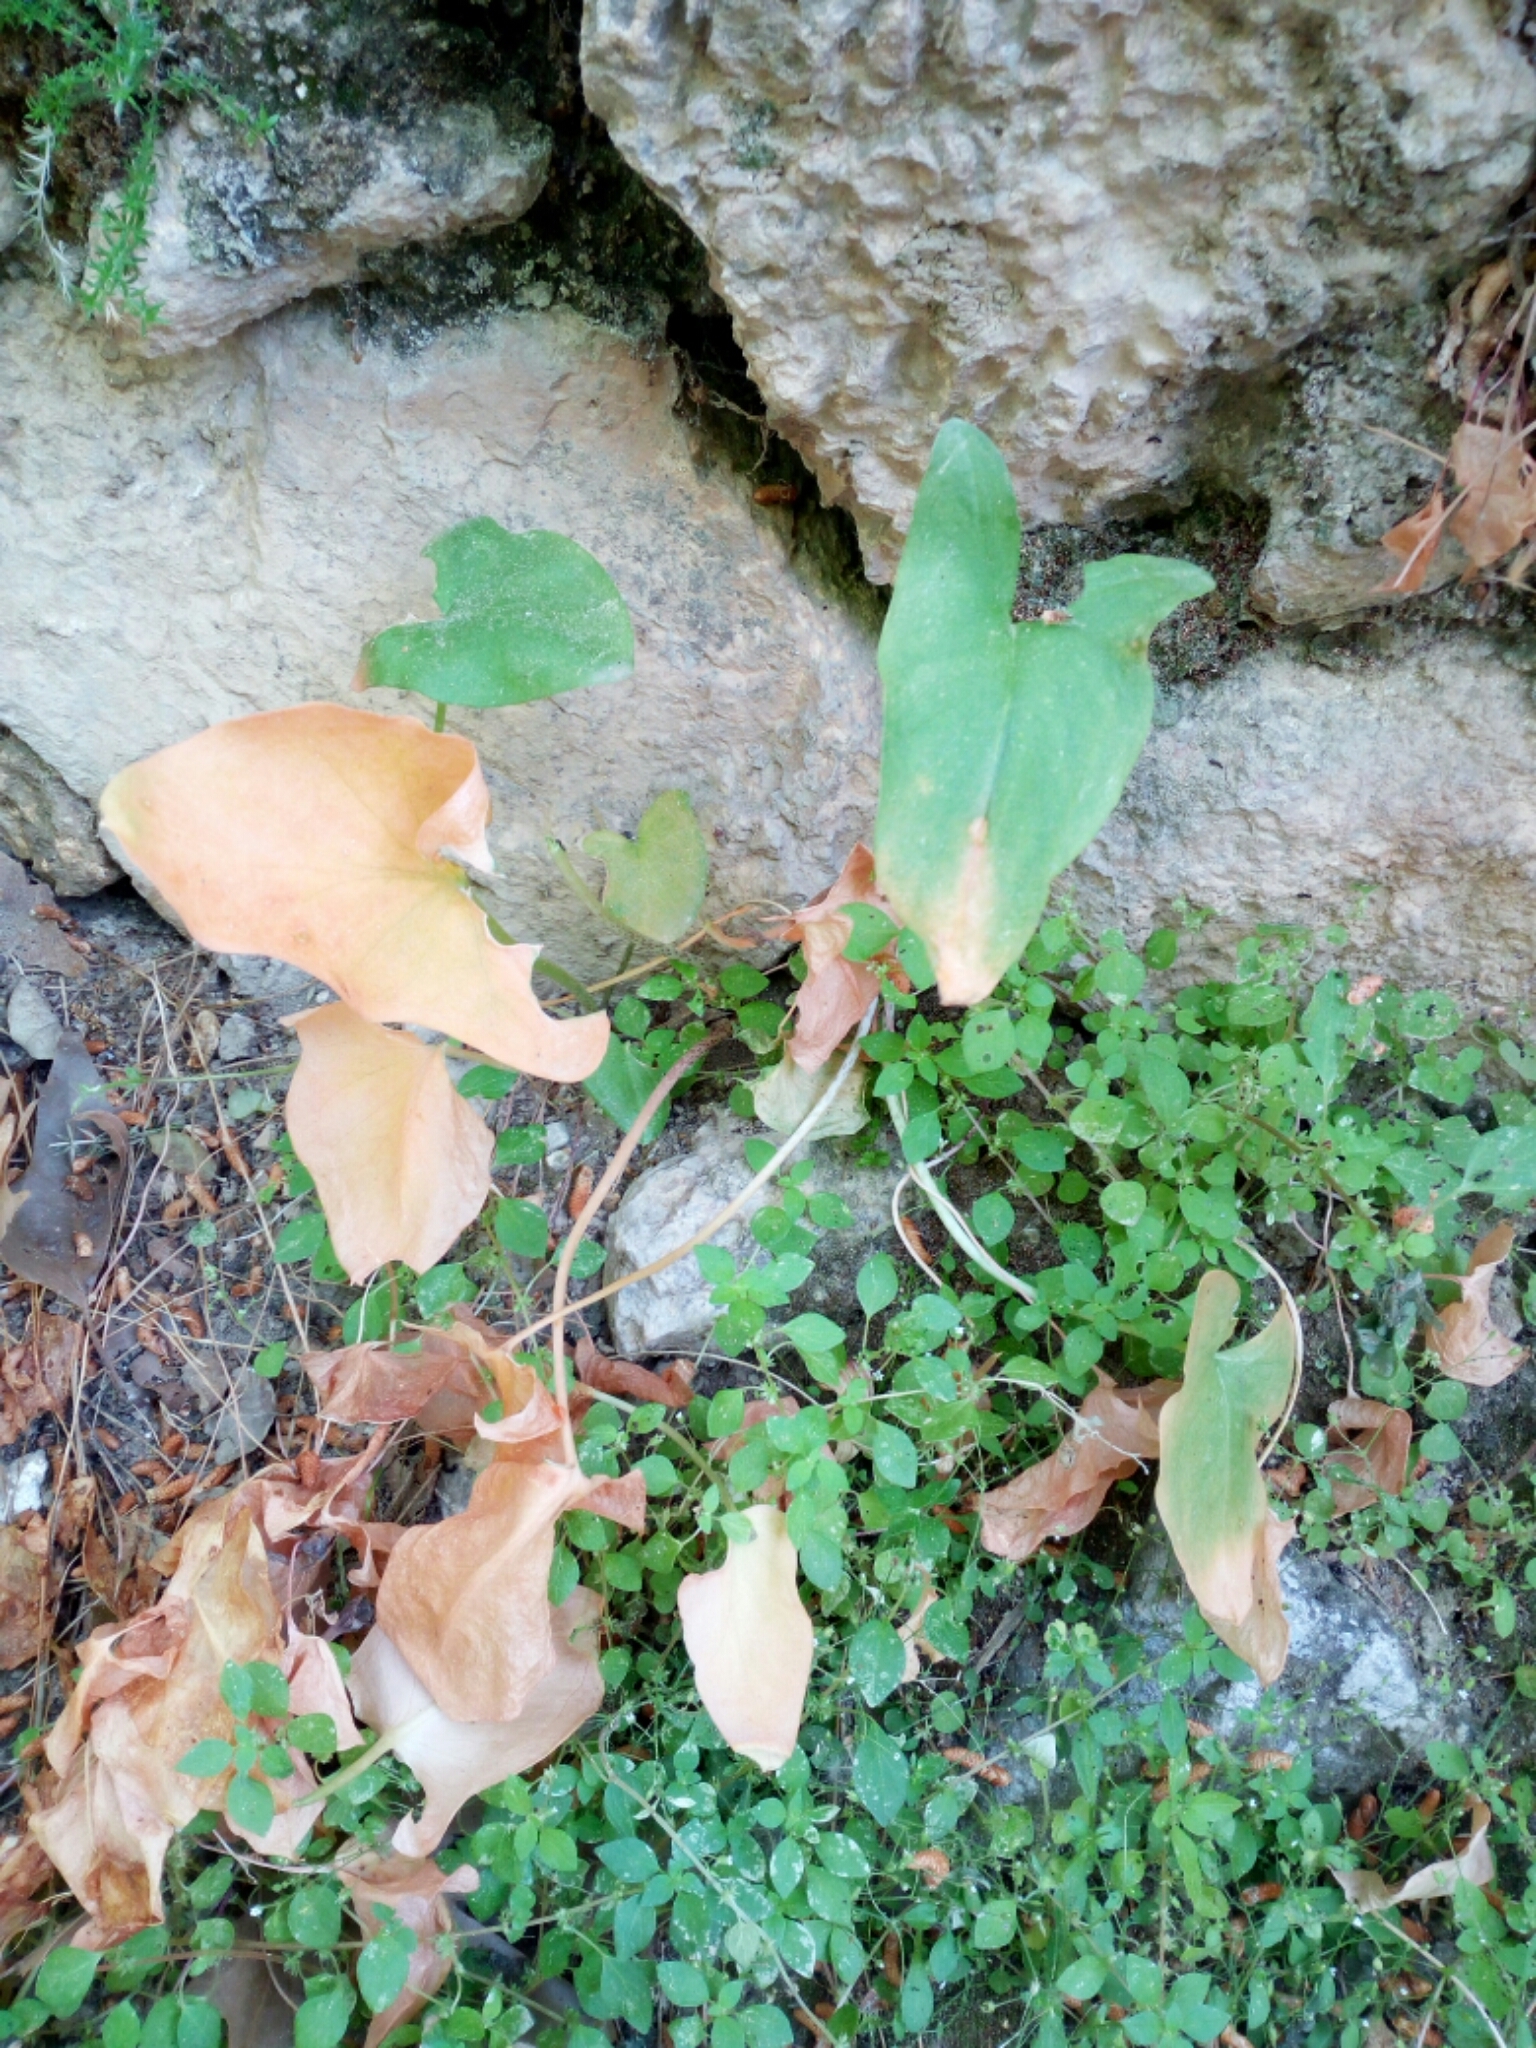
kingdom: Plantae
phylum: Tracheophyta
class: Liliopsida
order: Alismatales
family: Araceae
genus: Arisarum
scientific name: Arisarum vulgare
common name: Common arisarum
